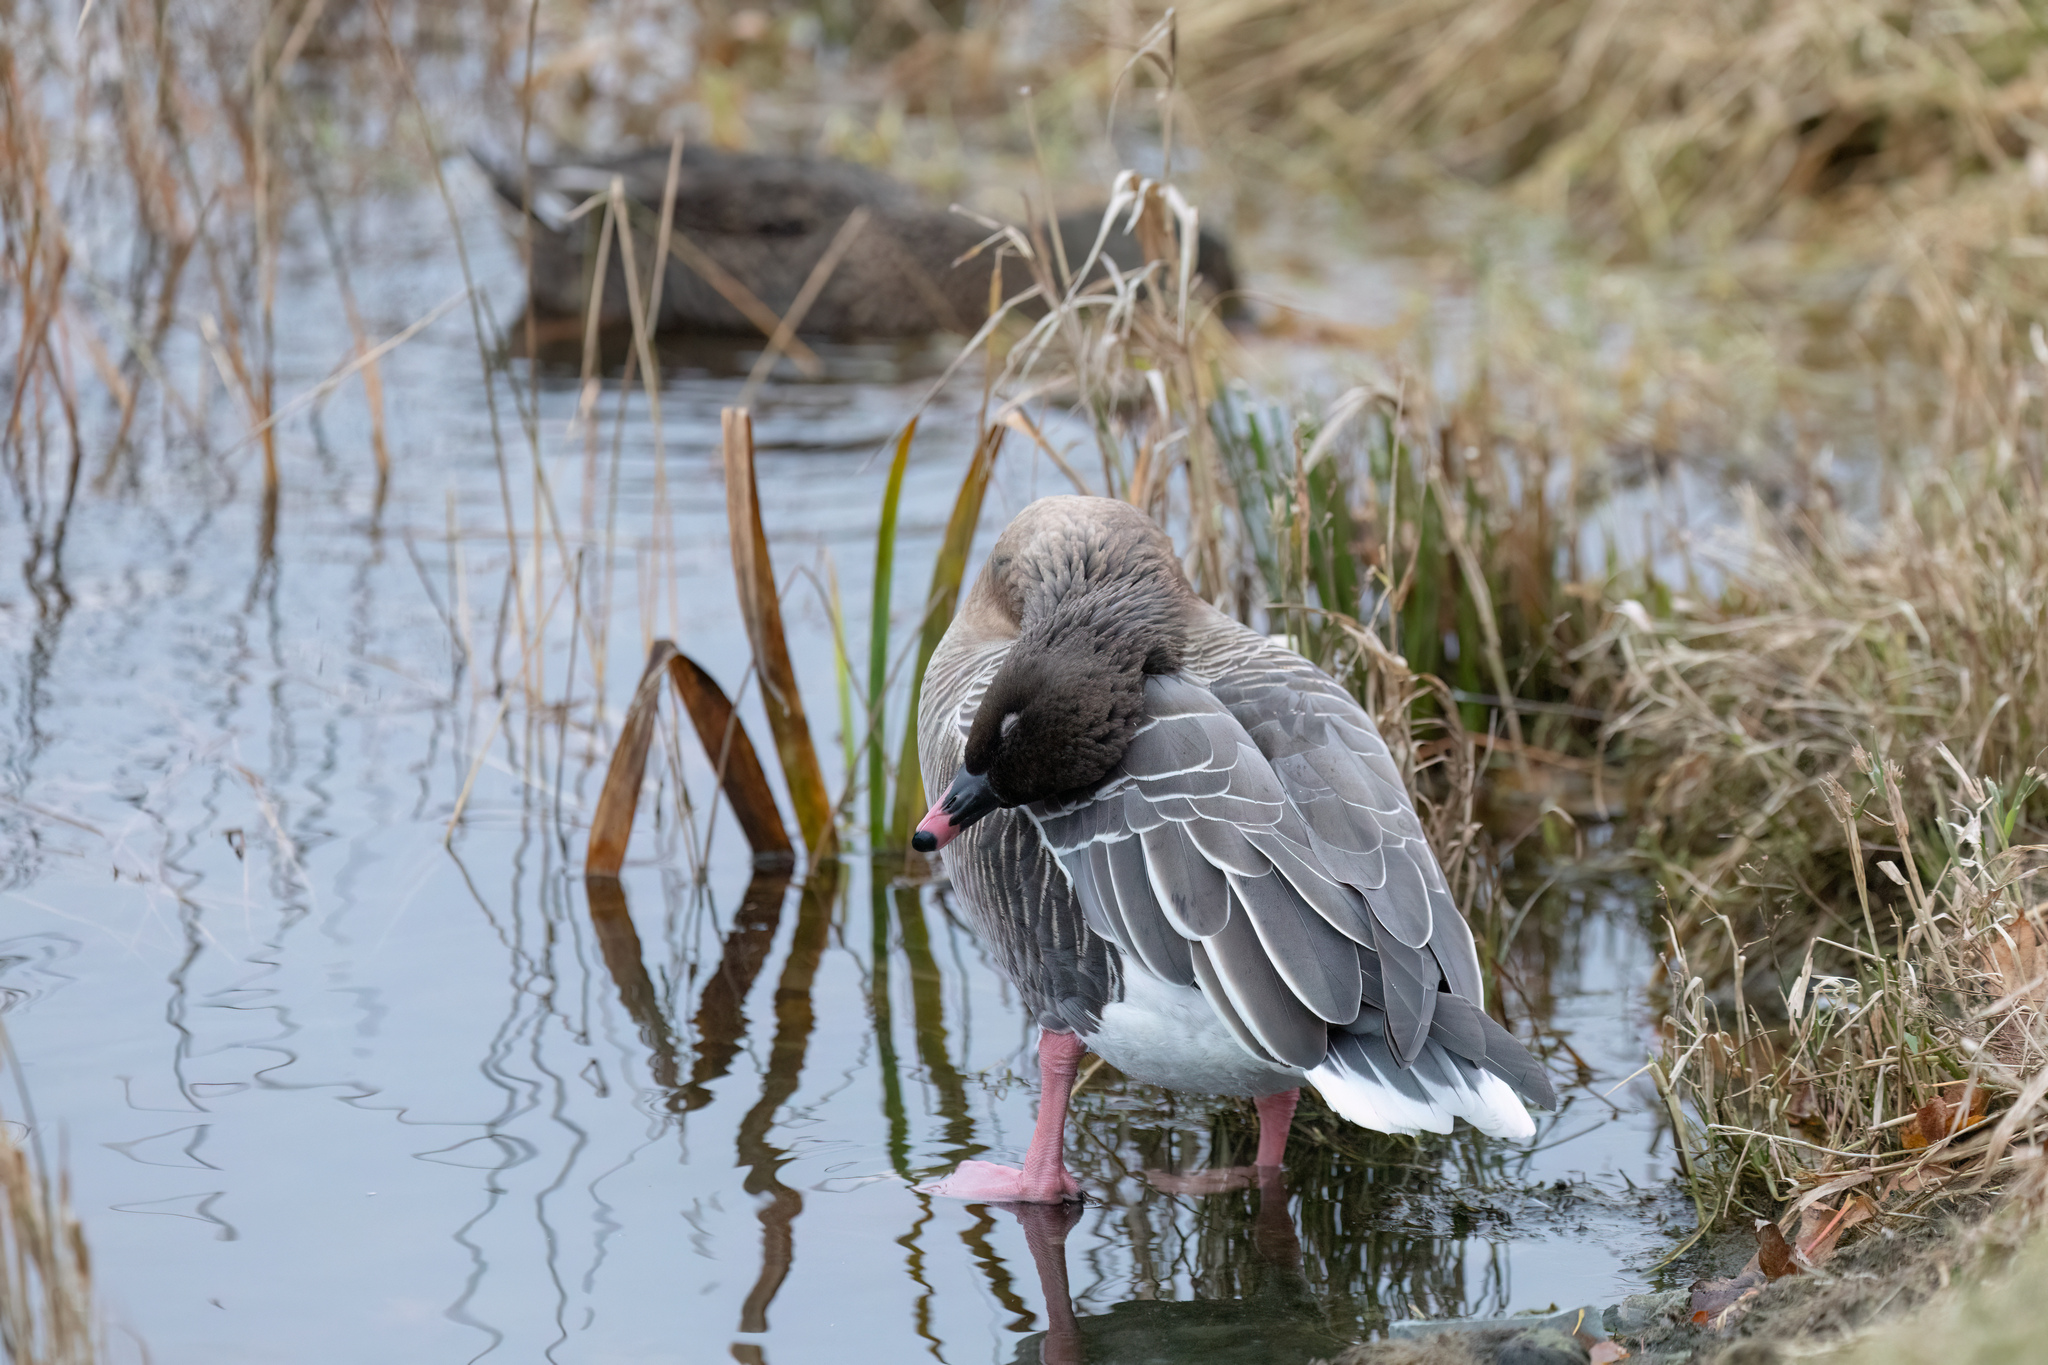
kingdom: Animalia
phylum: Chordata
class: Aves
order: Anseriformes
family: Anatidae
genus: Anser
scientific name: Anser brachyrhynchus
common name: Pink-footed goose
